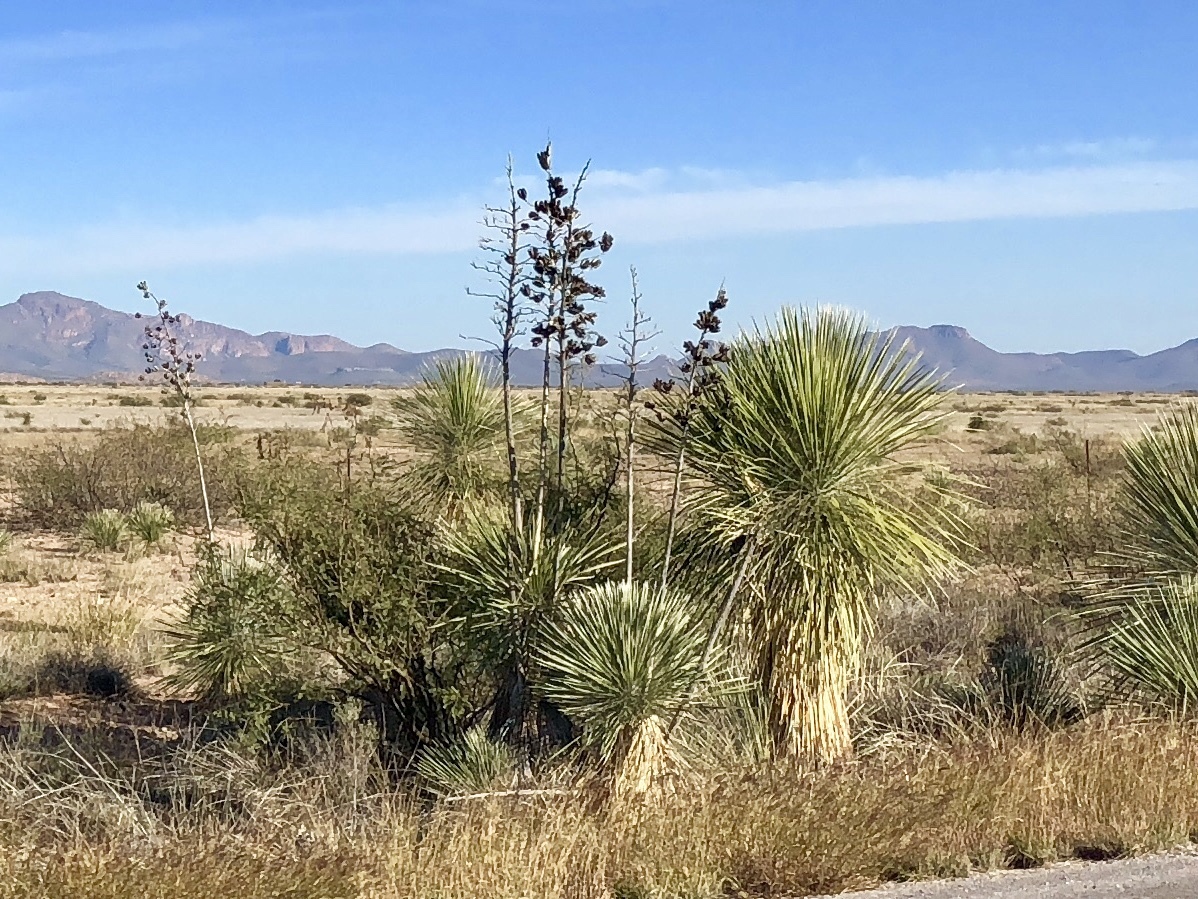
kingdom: Plantae
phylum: Tracheophyta
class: Liliopsida
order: Asparagales
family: Asparagaceae
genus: Yucca
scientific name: Yucca elata
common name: Palmella
